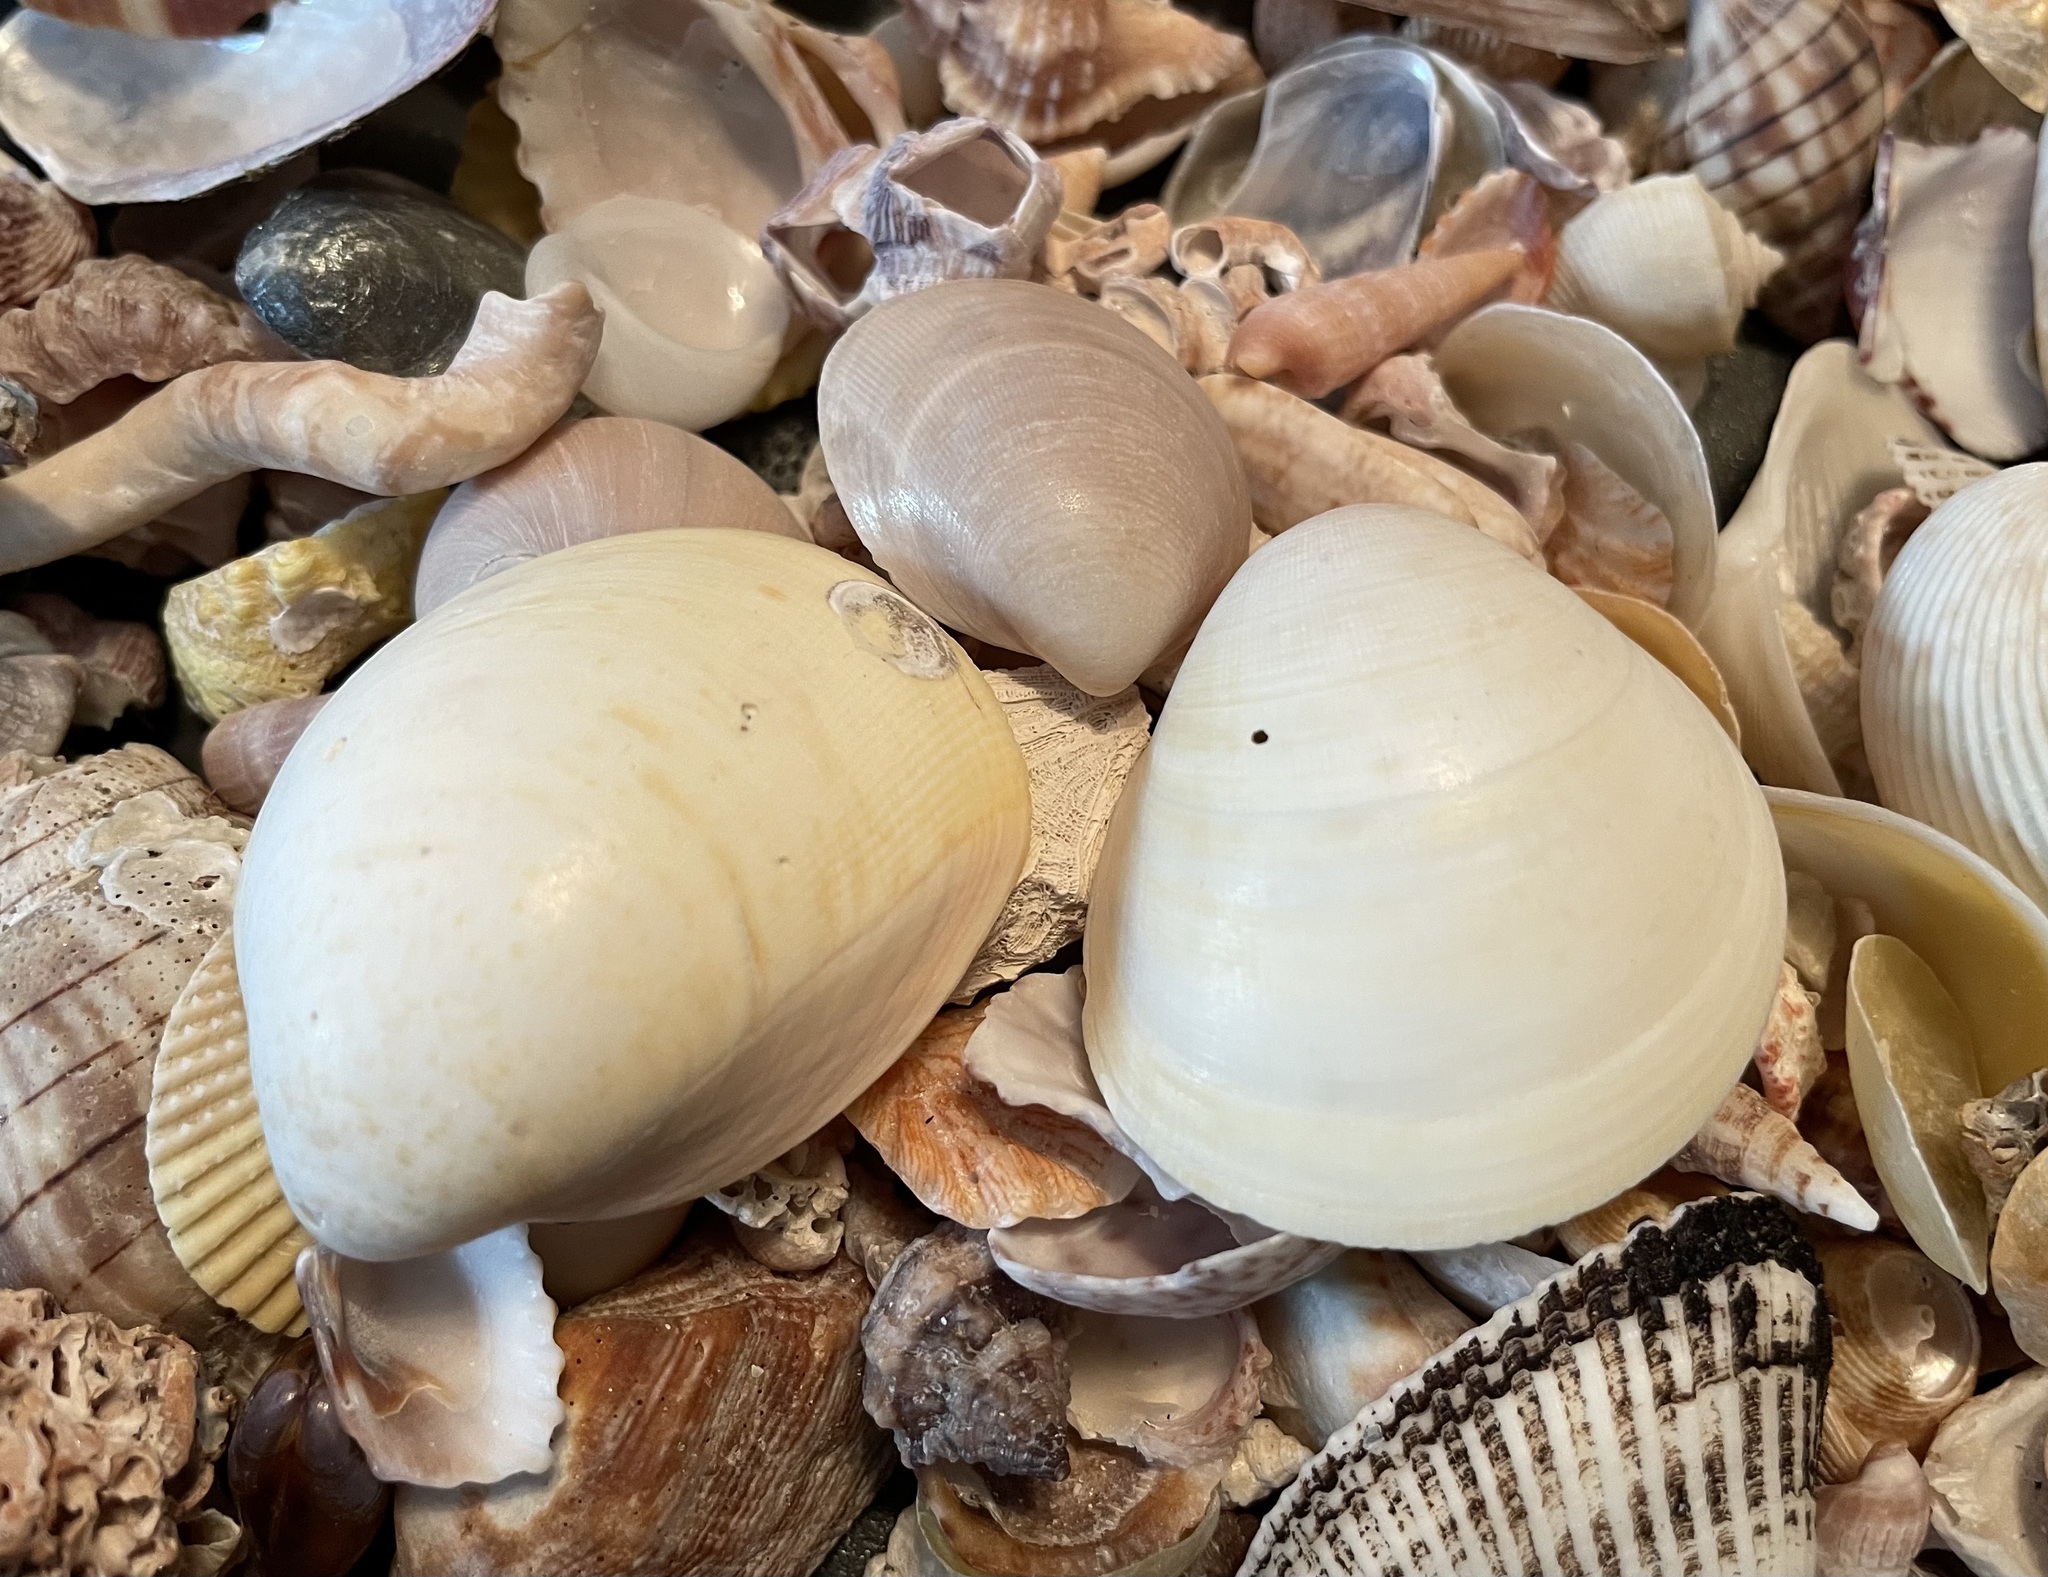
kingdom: Animalia
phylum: Mollusca
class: Bivalvia
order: Cardiida
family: Cardiidae
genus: Laevicardium
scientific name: Laevicardium serratum
